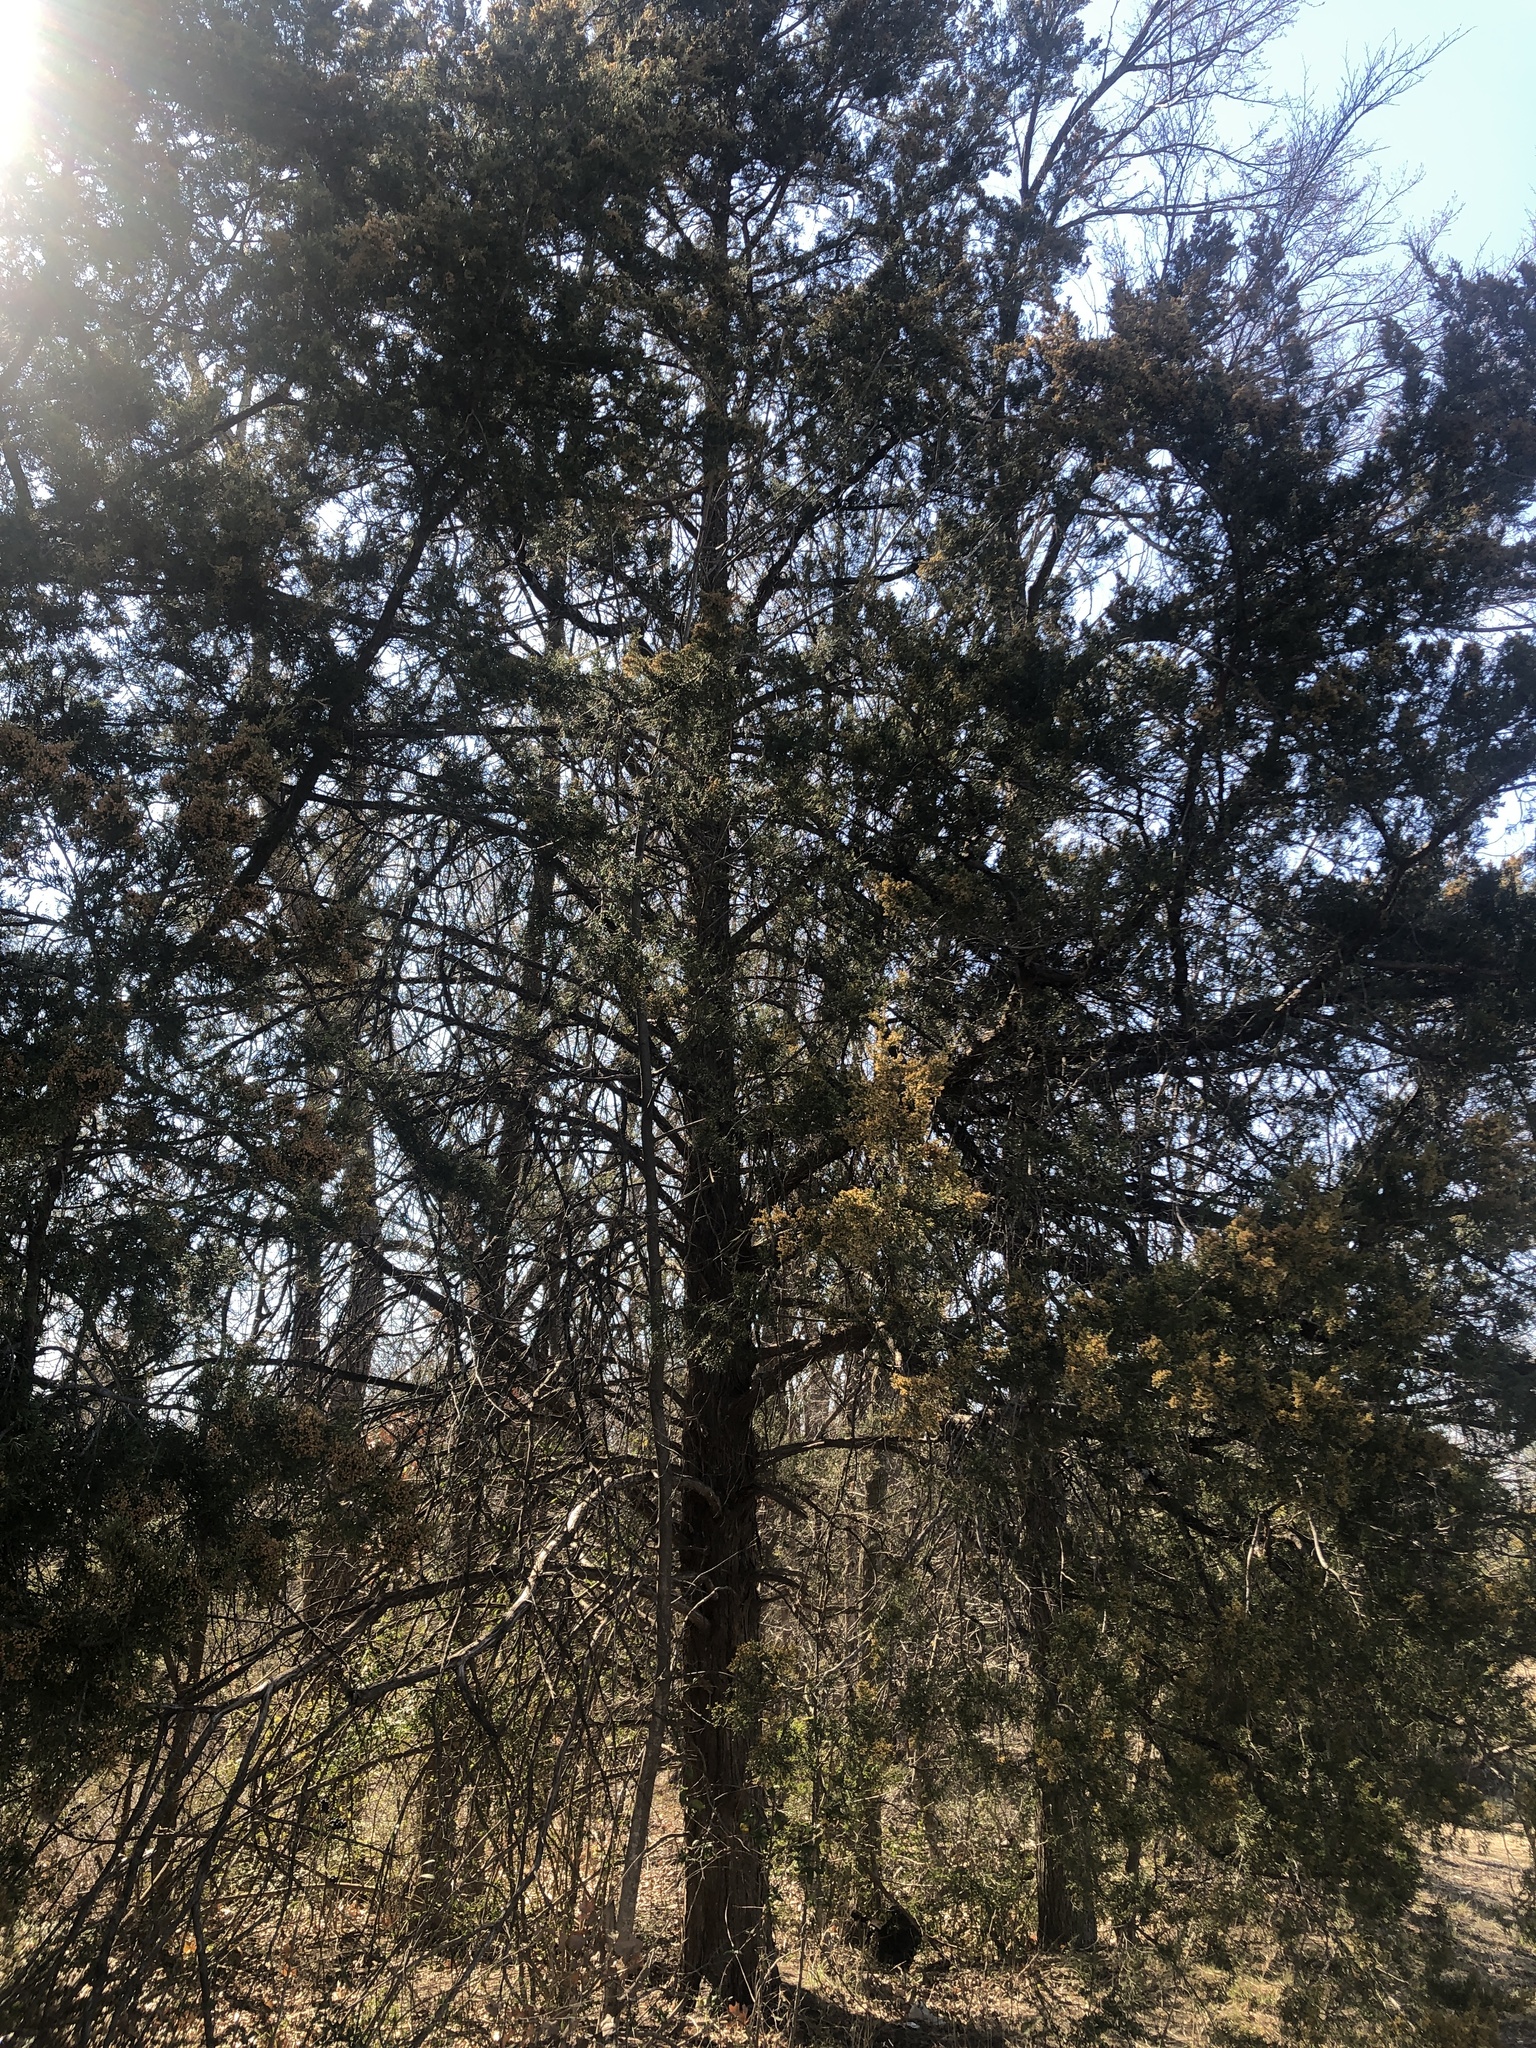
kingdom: Plantae
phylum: Tracheophyta
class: Pinopsida
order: Pinales
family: Cupressaceae
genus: Juniperus
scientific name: Juniperus virginiana
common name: Red juniper
